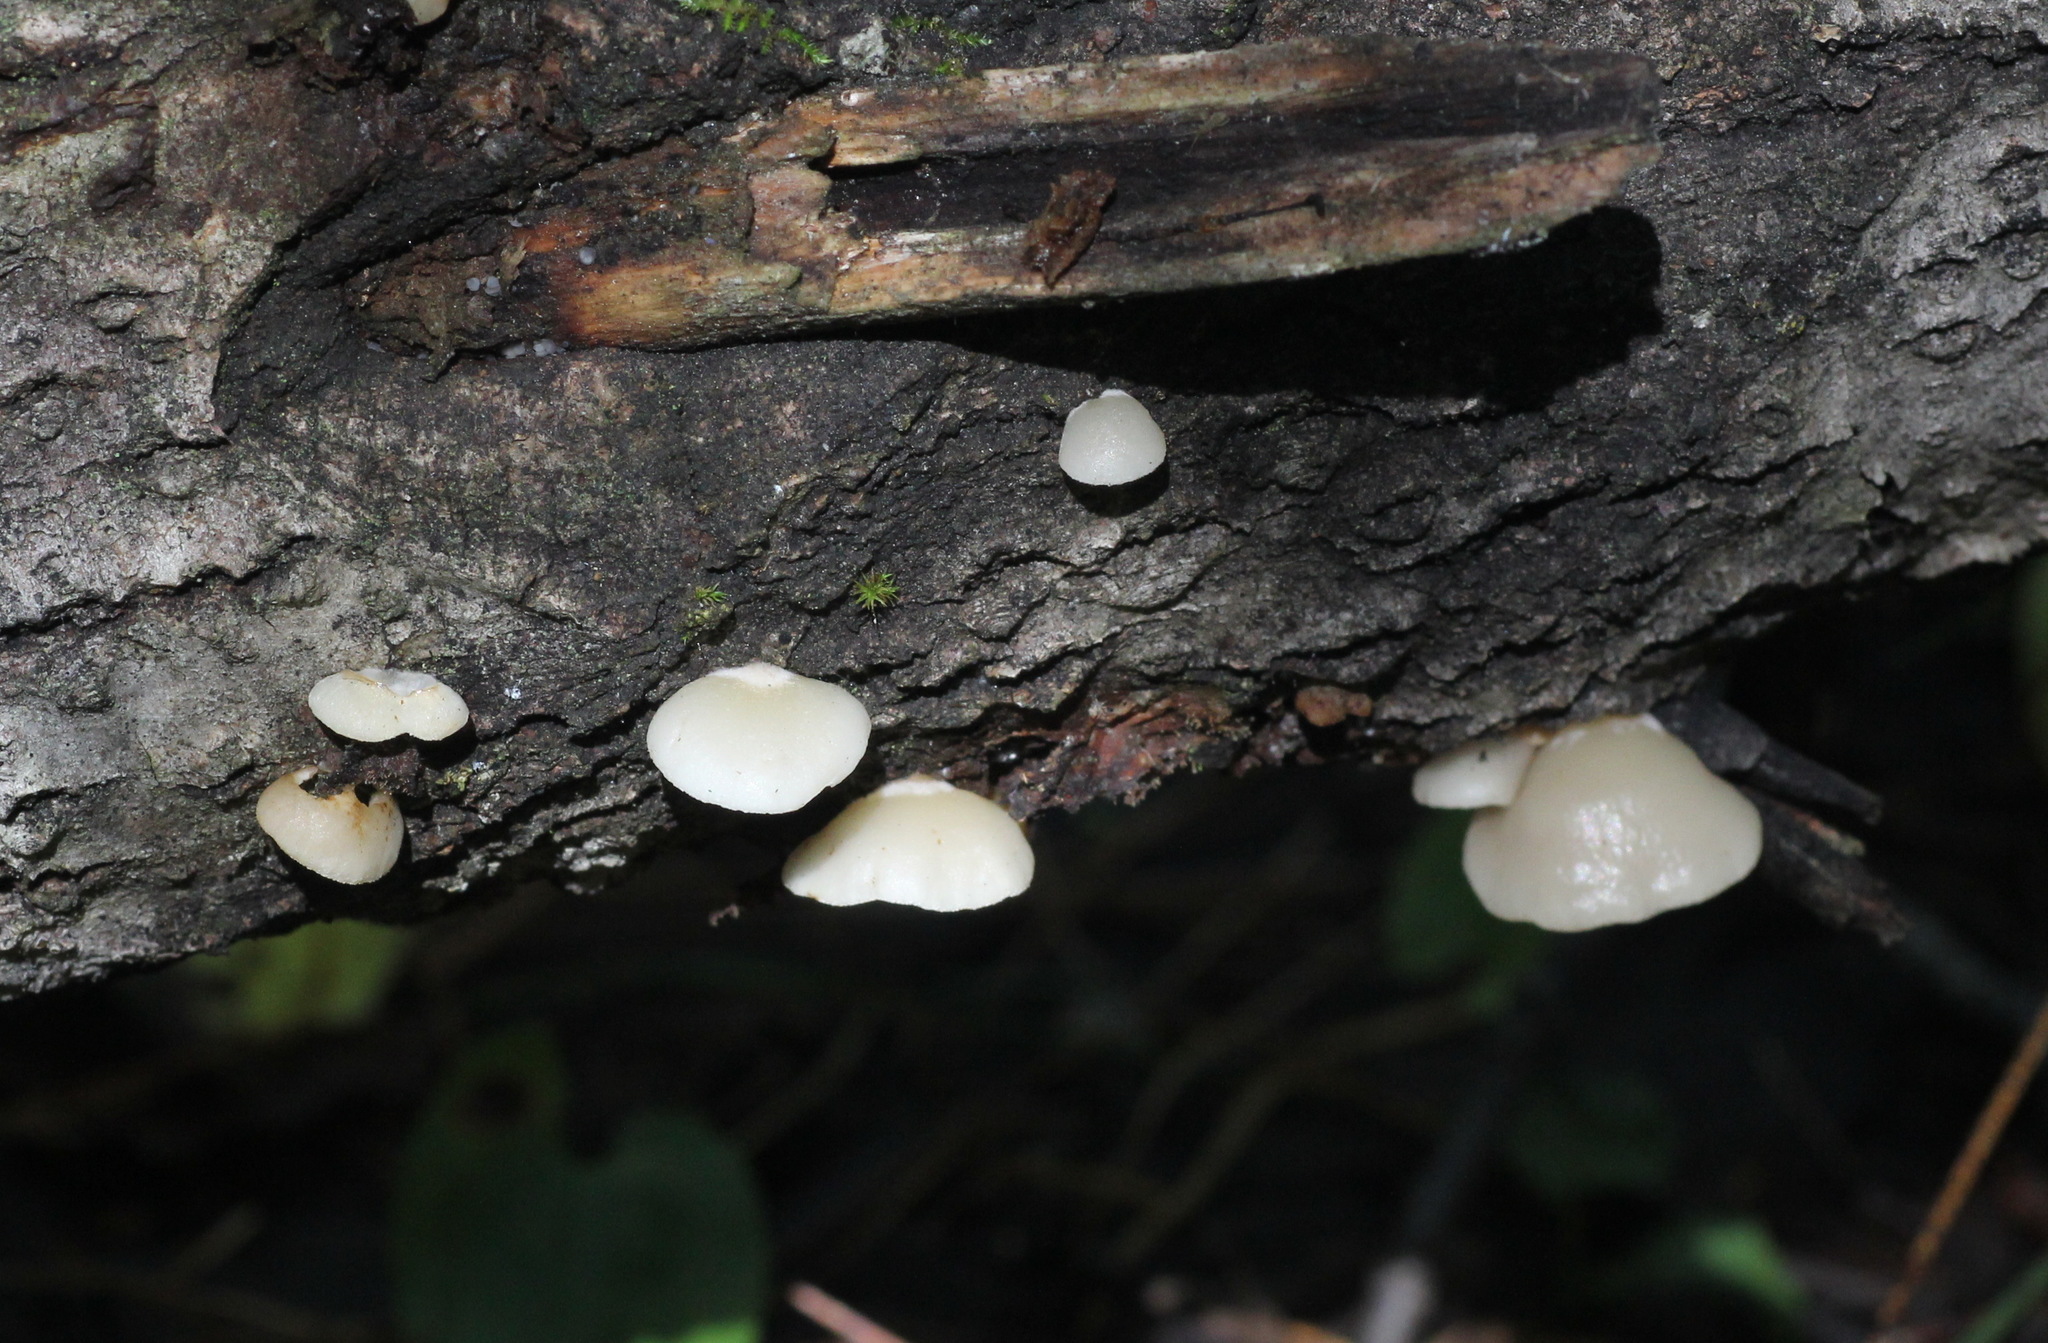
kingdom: Fungi
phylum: Basidiomycota
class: Agaricomycetes
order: Agaricales
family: Crepidotaceae
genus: Crepidotus
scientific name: Crepidotus mollis
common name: Peeling oysterling
